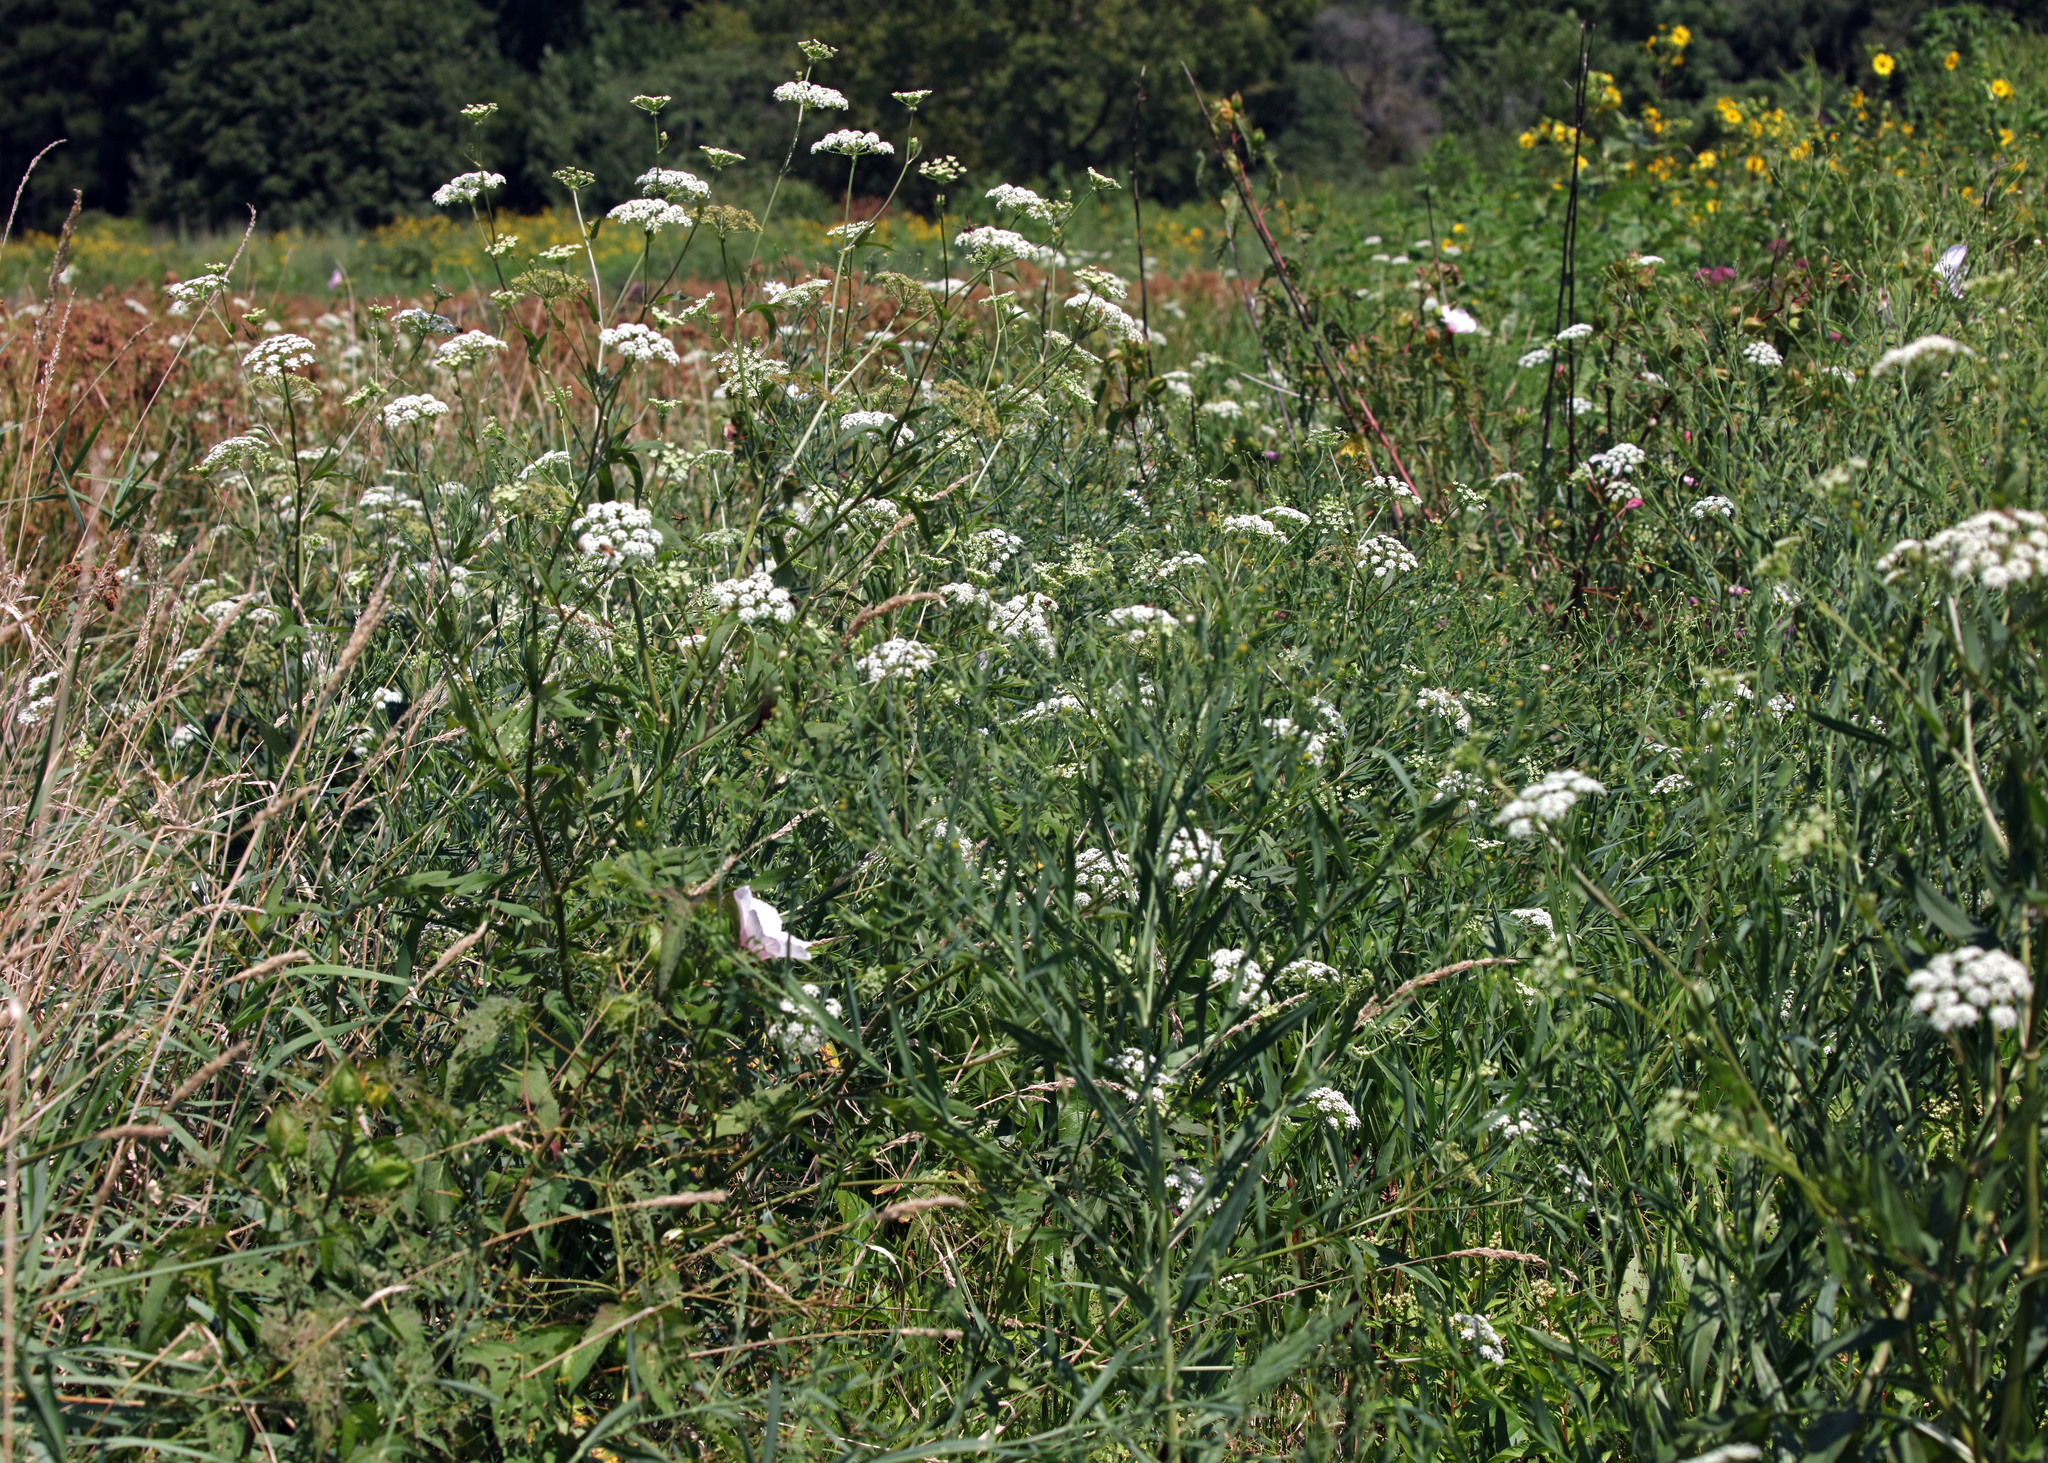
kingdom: Plantae
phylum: Tracheophyta
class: Magnoliopsida
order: Apiales
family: Apiaceae
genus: Sium
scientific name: Sium suave
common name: Hemlock water-parsnip
